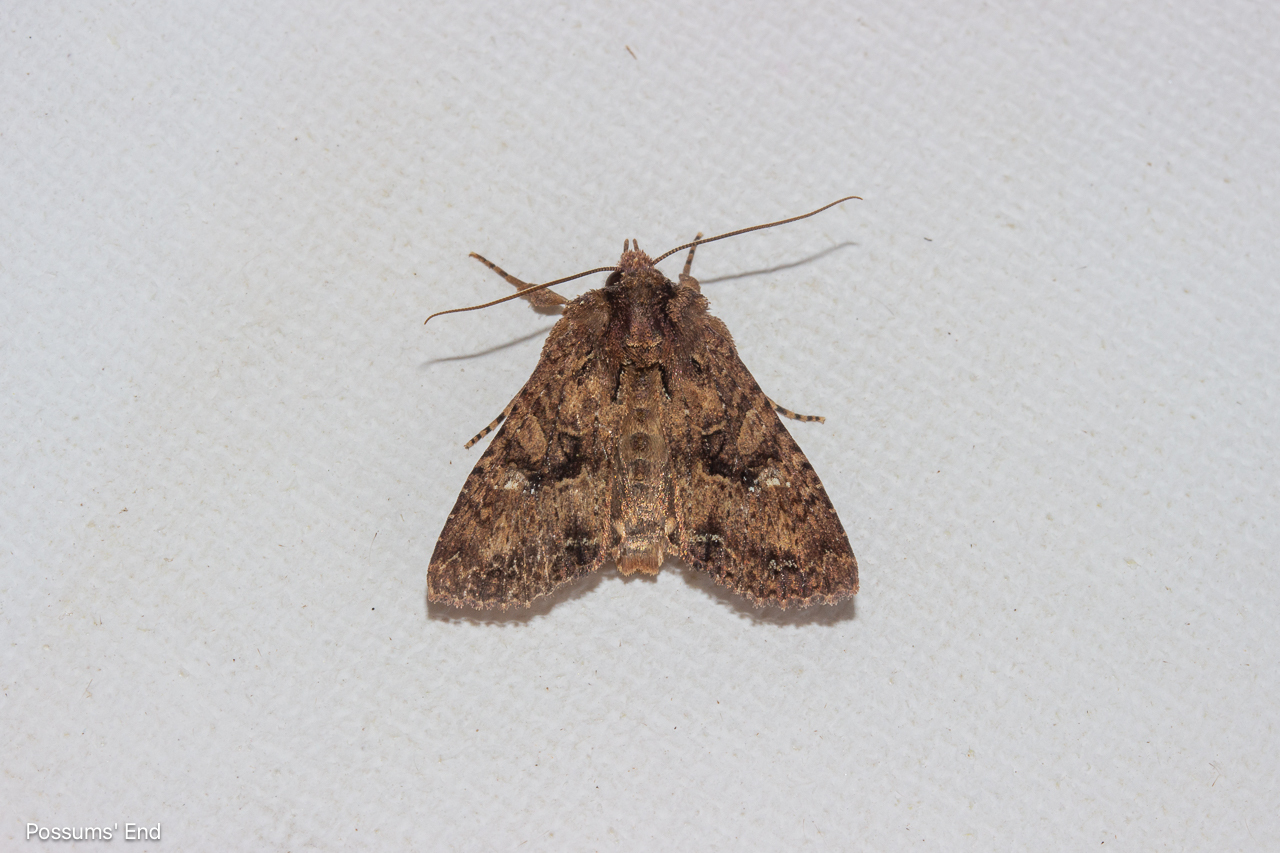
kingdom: Animalia
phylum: Arthropoda
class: Insecta
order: Lepidoptera
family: Noctuidae
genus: Meterana
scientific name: Meterana ochthistis
